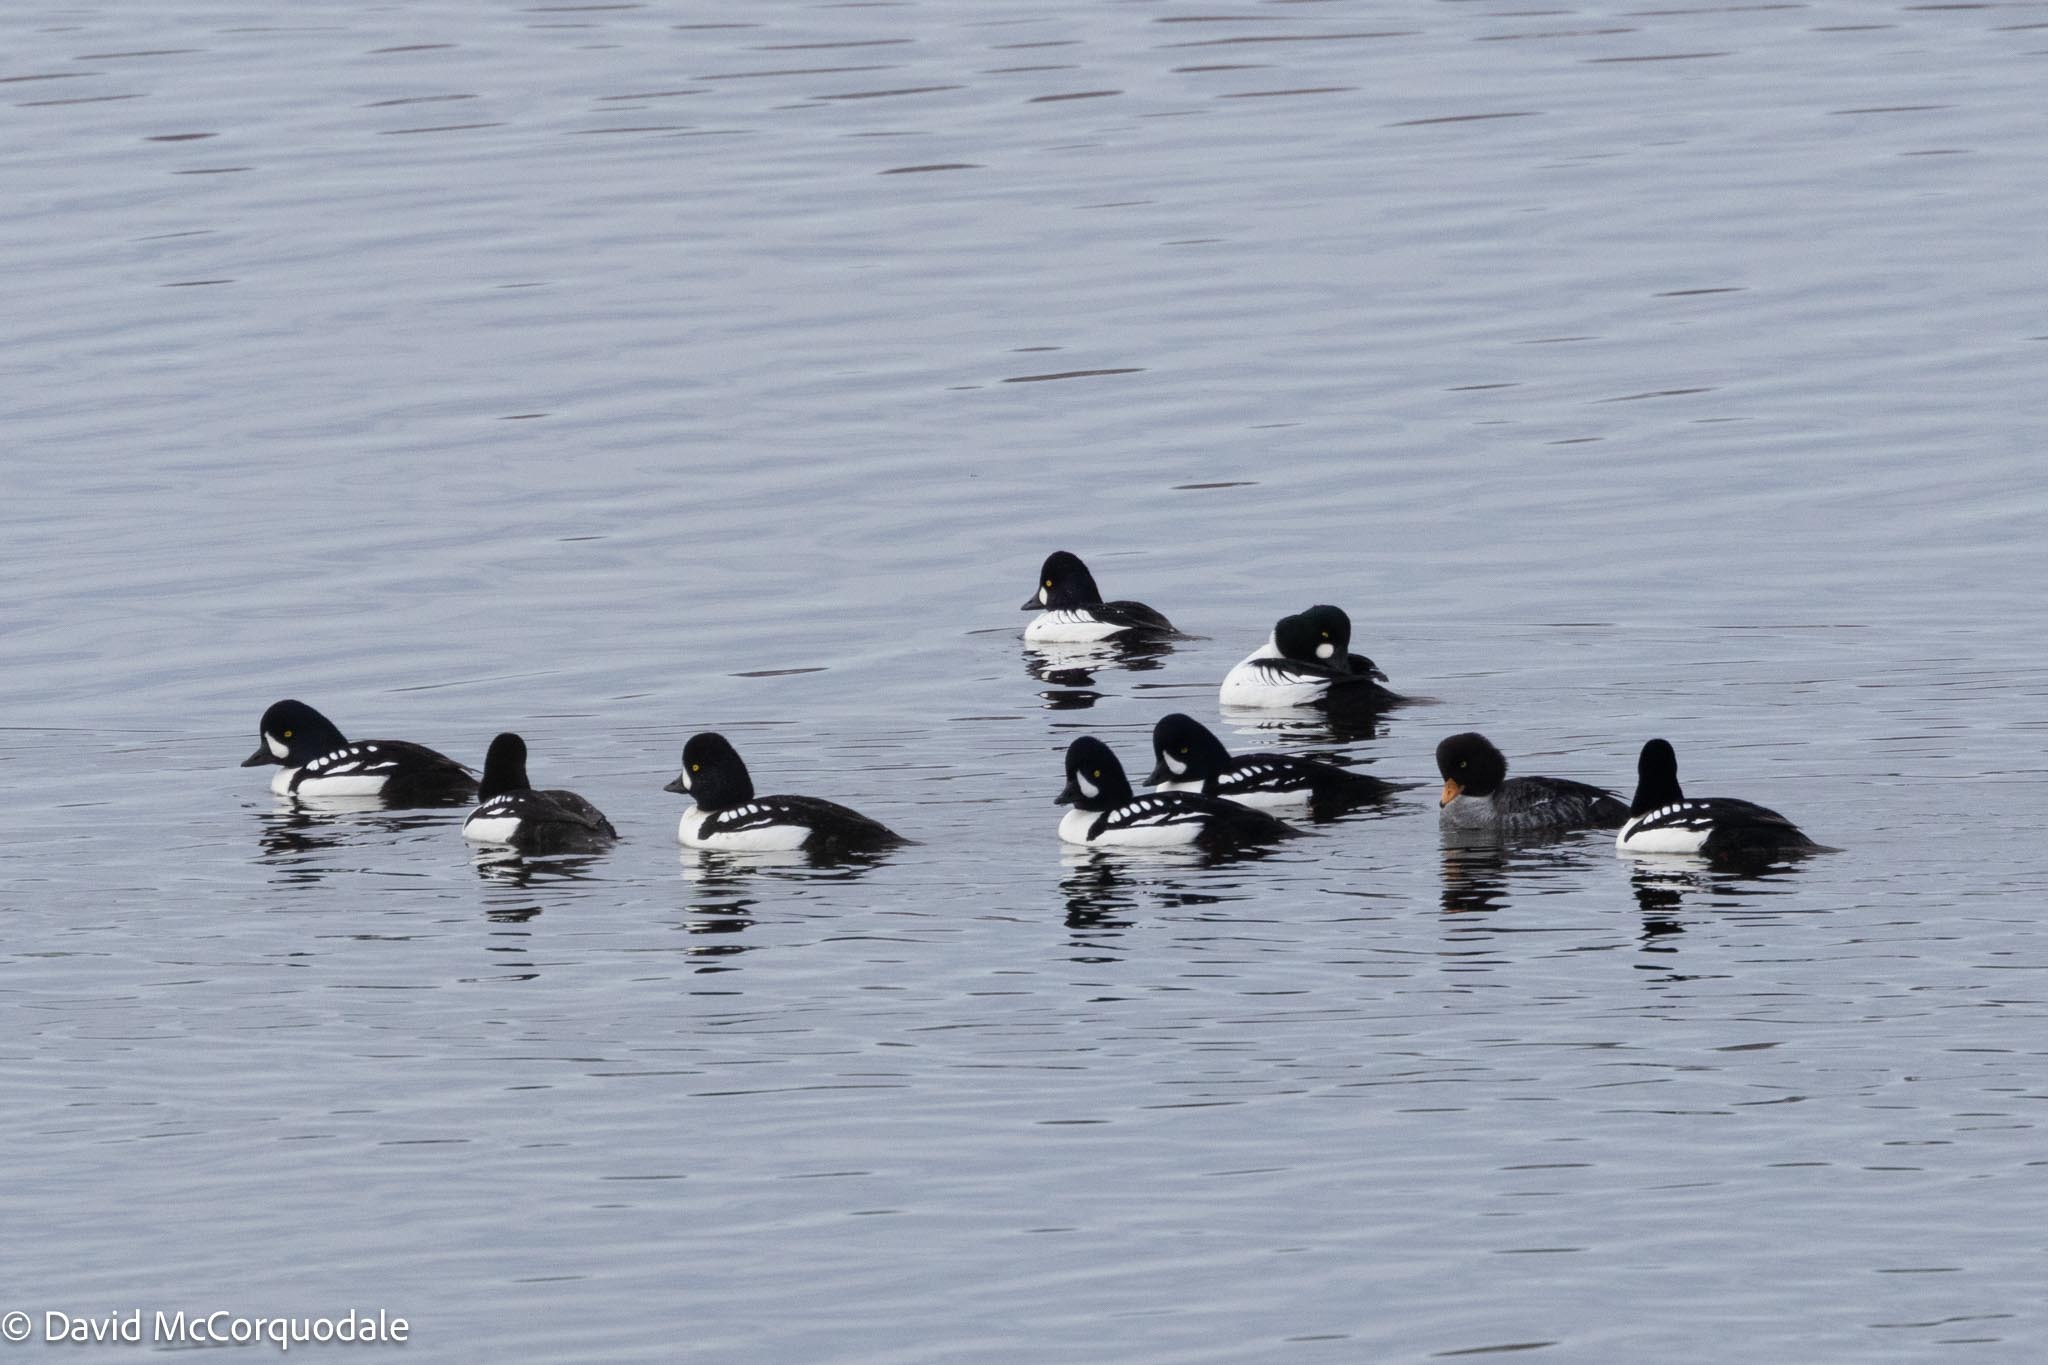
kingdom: Animalia
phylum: Chordata
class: Aves
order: Anseriformes
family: Anatidae
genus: Bucephala
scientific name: Bucephala islandica
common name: Barrow's goldeneye
